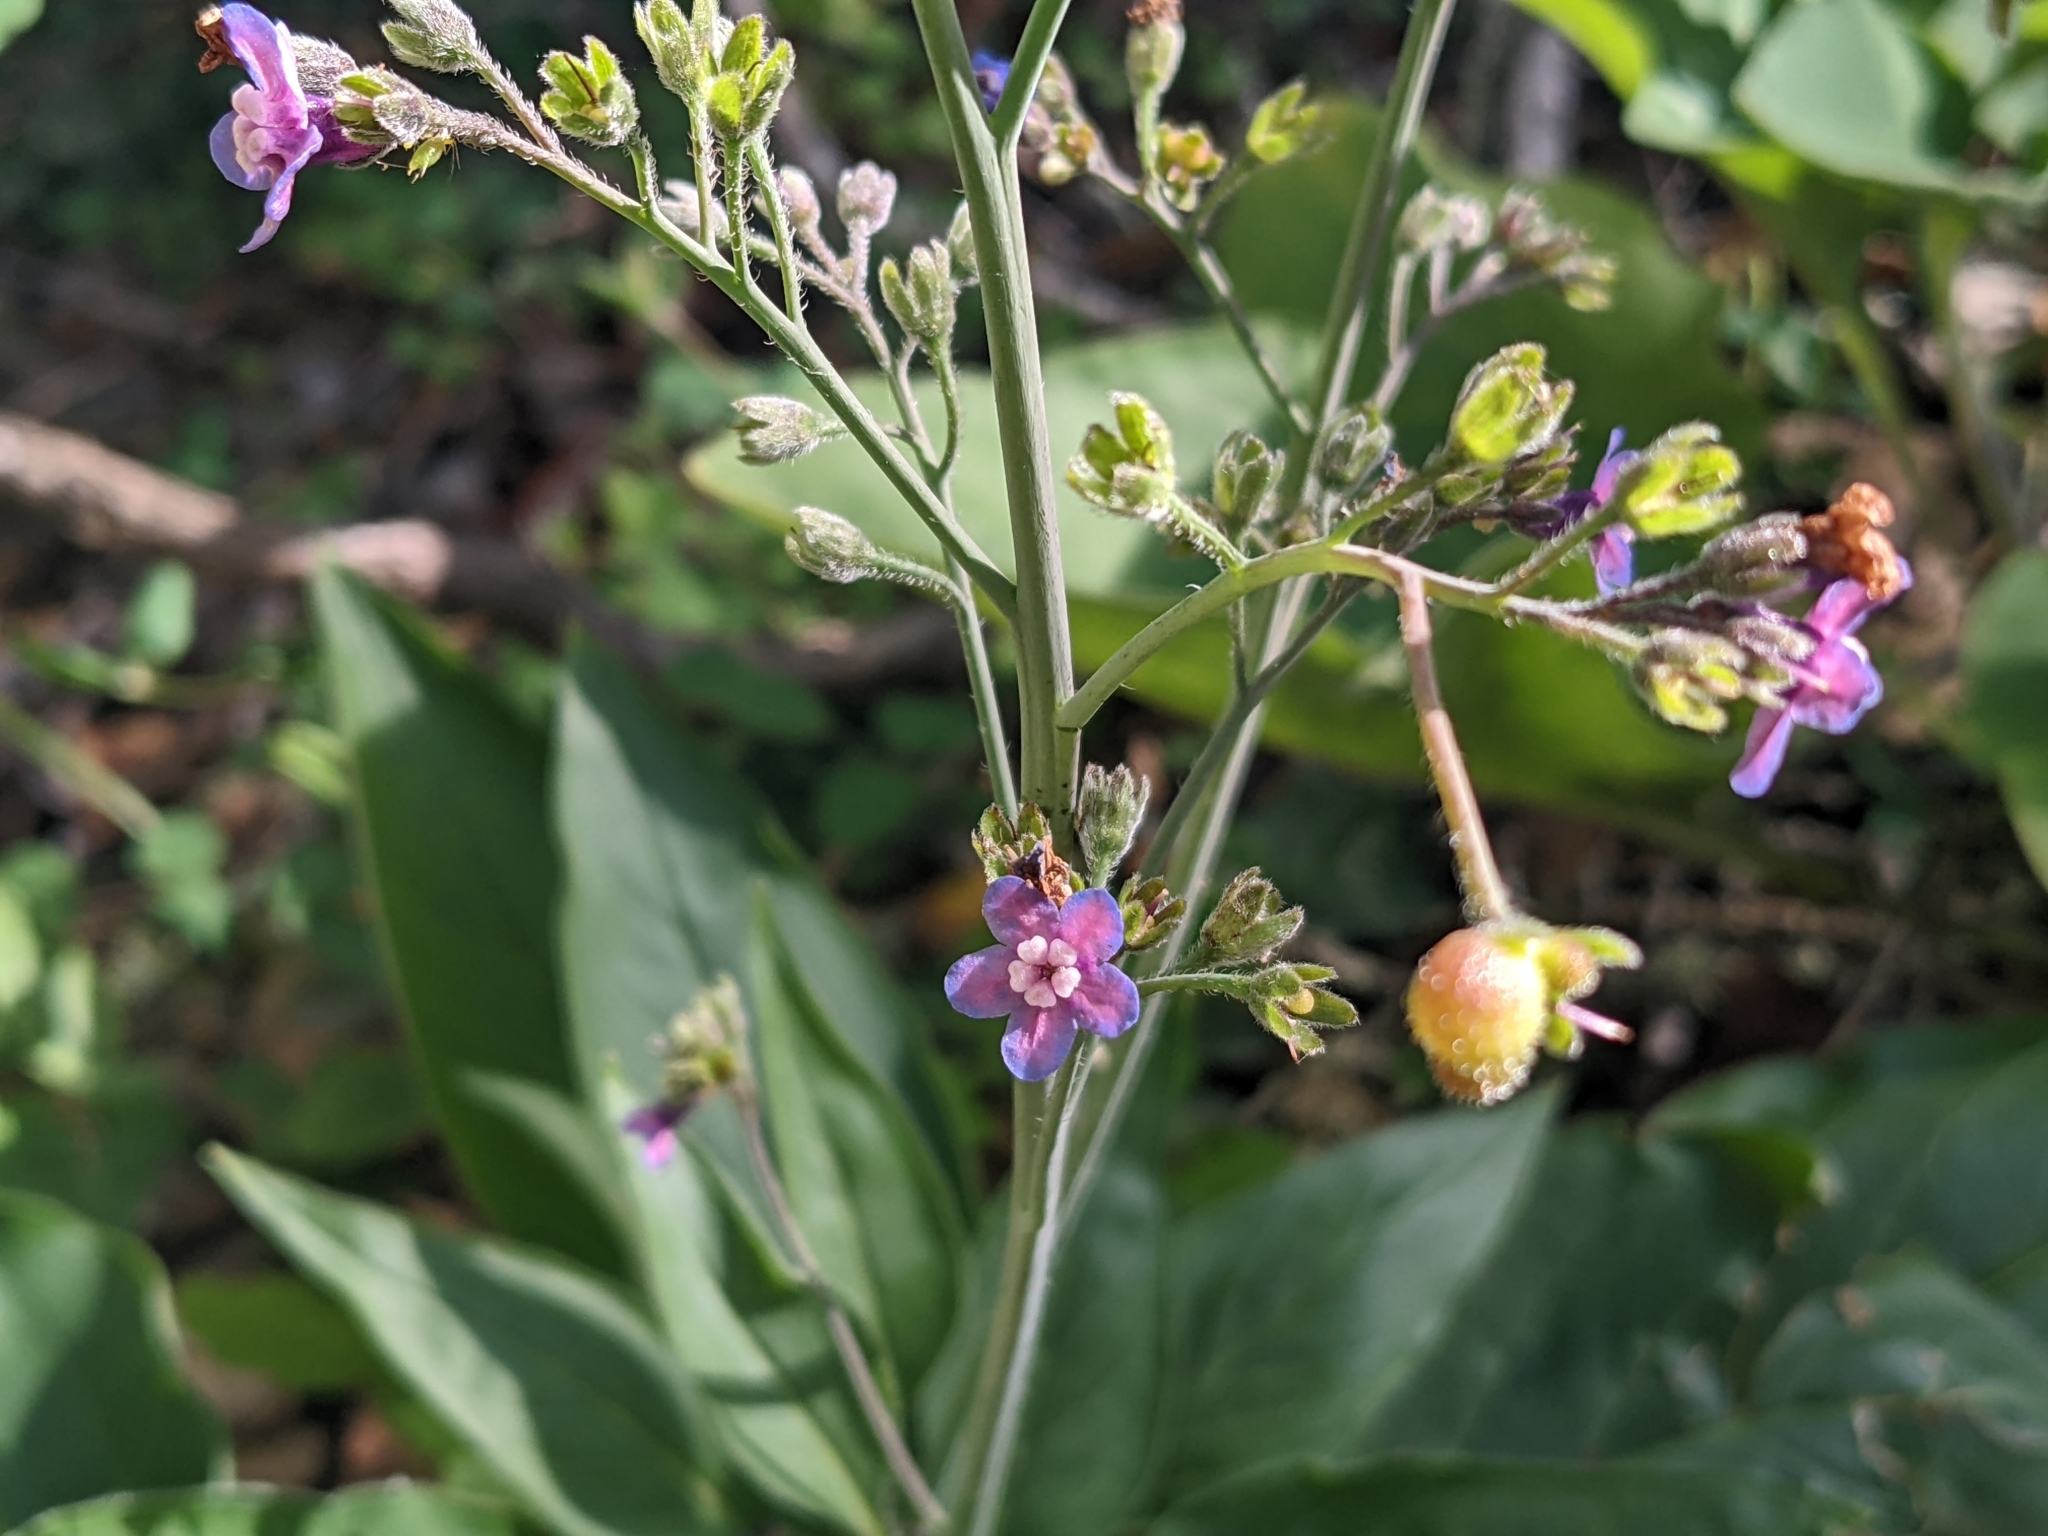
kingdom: Plantae
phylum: Tracheophyta
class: Magnoliopsida
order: Boraginales
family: Boraginaceae
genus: Adelinia
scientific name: Adelinia grande
